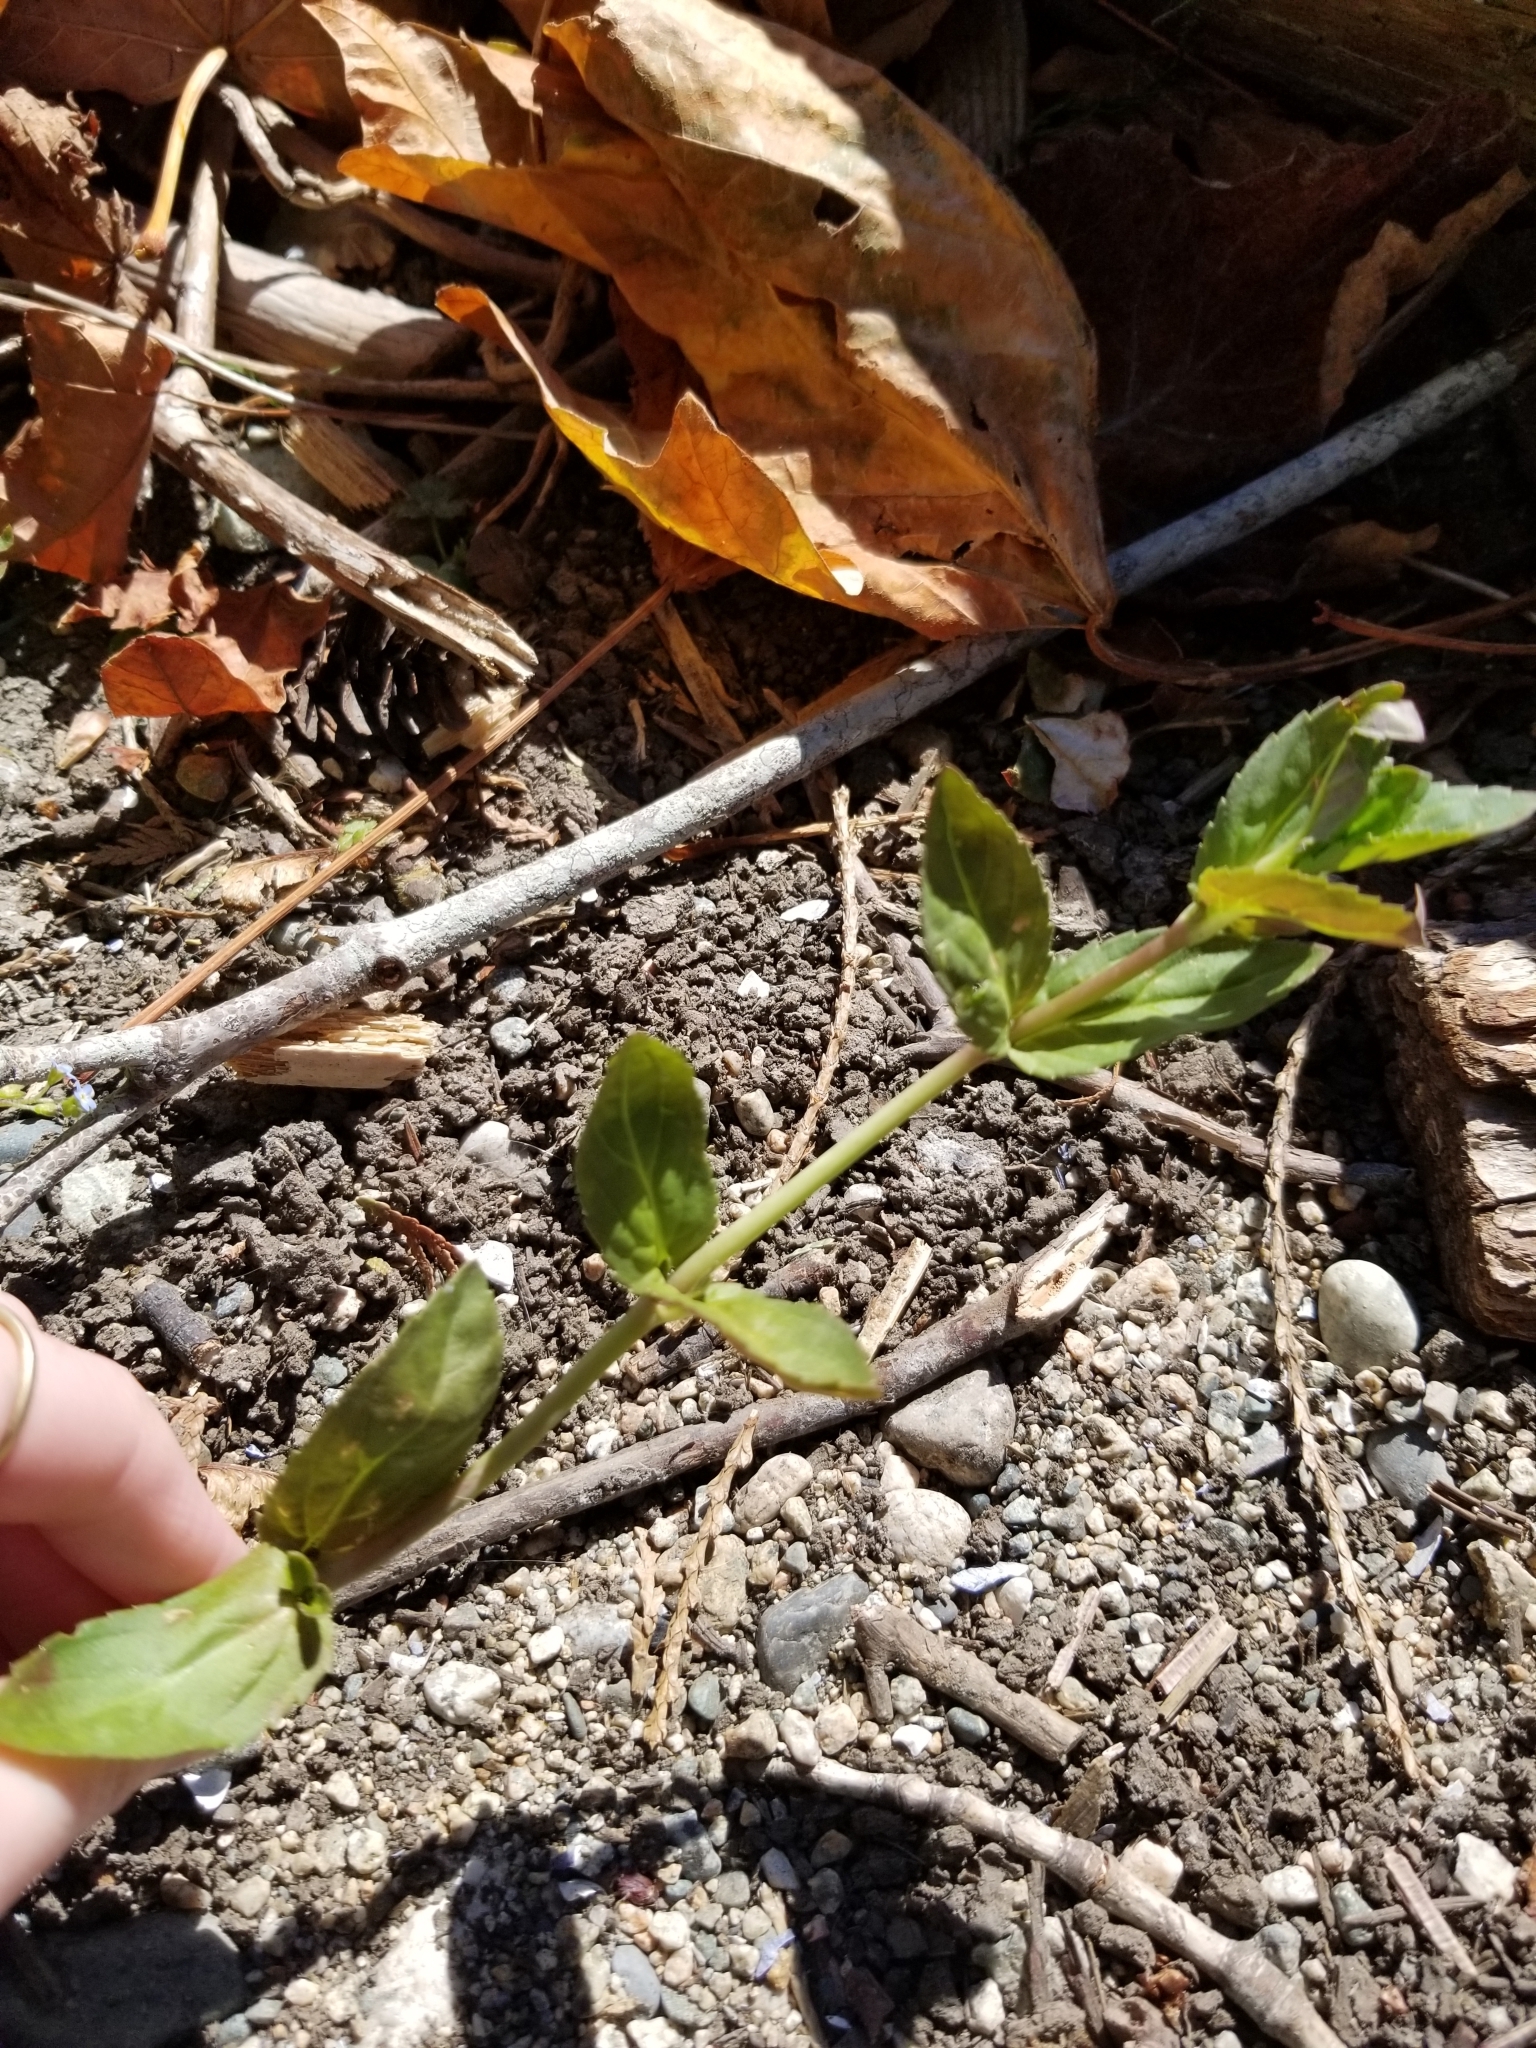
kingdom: Plantae
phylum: Tracheophyta
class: Magnoliopsida
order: Lamiales
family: Plantaginaceae
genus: Veronica
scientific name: Veronica americana
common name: American brooklime
